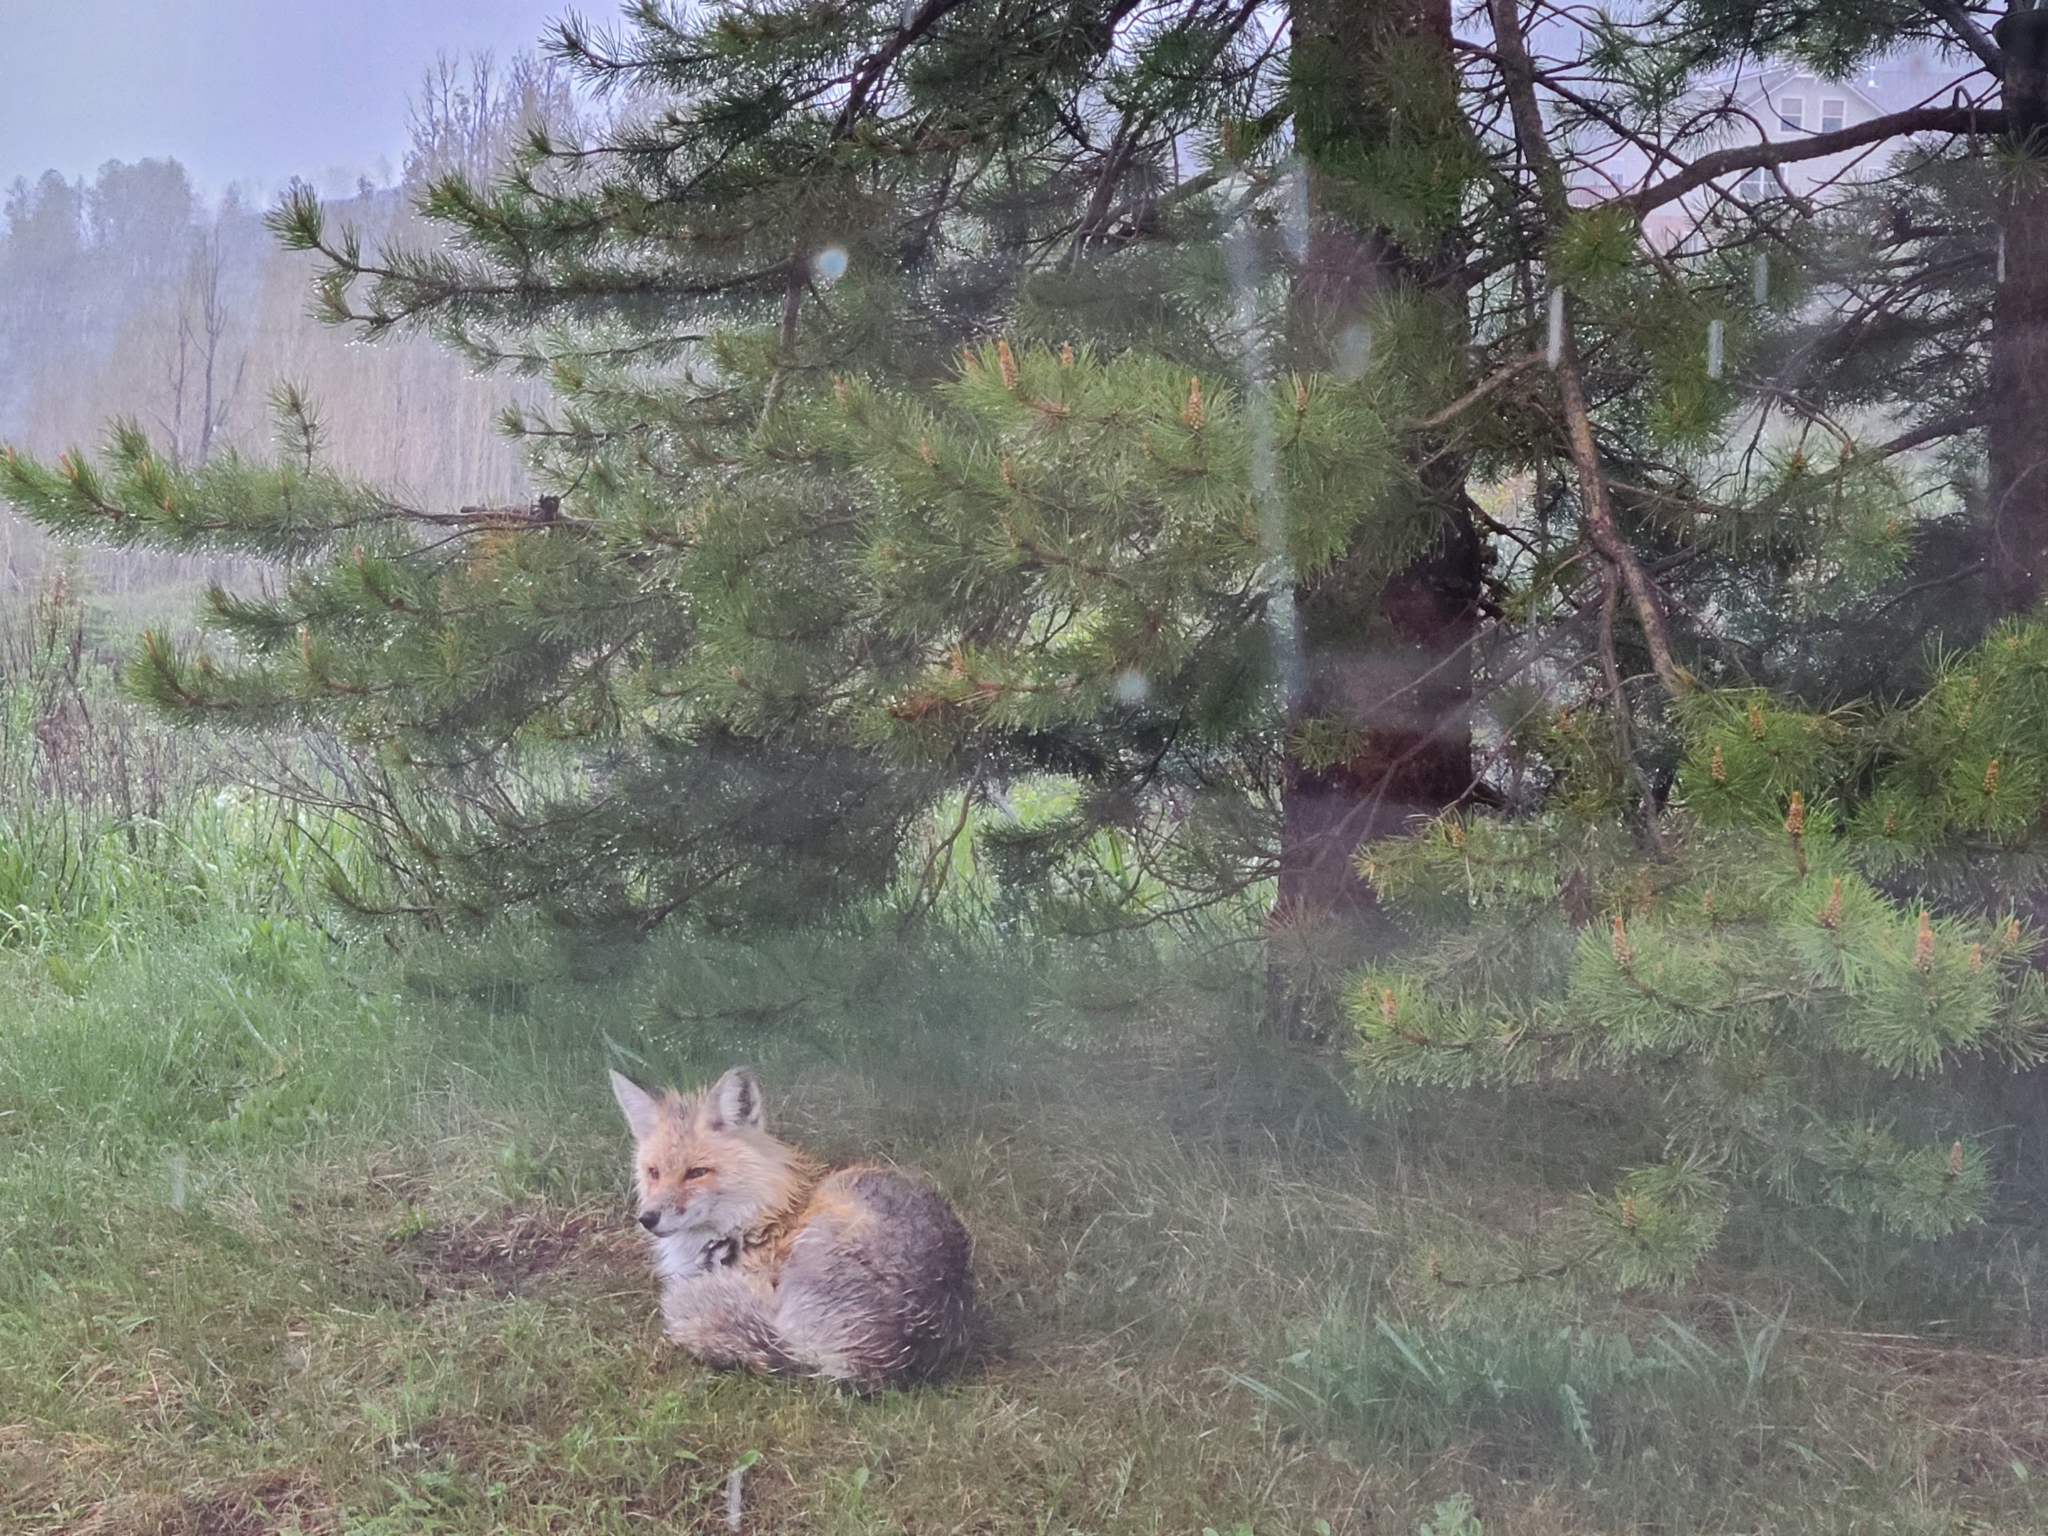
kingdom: Animalia
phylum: Chordata
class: Mammalia
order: Carnivora
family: Canidae
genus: Vulpes
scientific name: Vulpes vulpes
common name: Red fox
